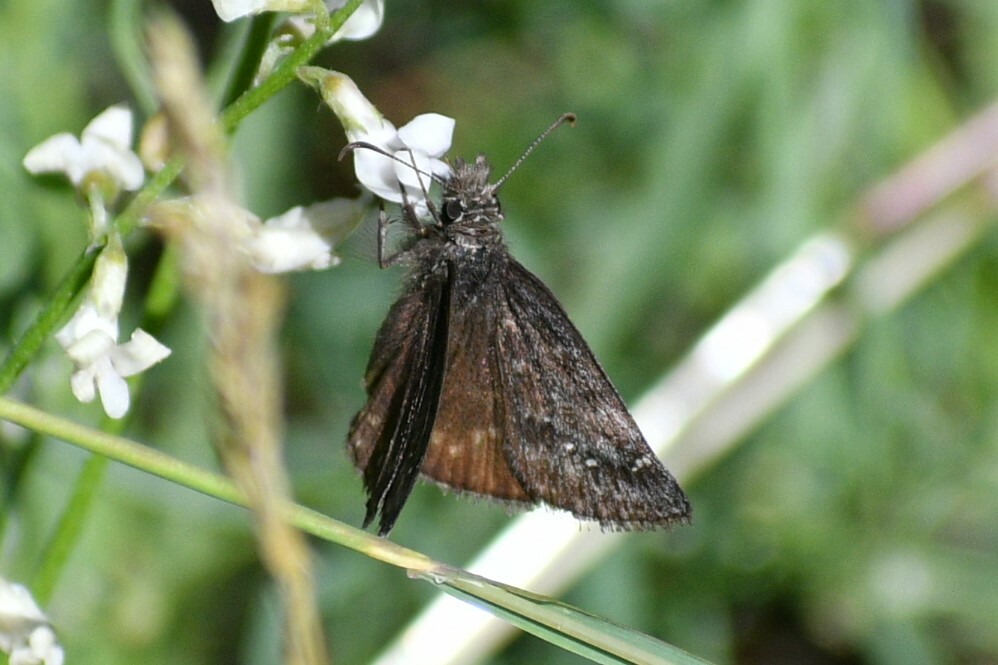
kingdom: Animalia
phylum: Arthropoda
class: Insecta
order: Lepidoptera
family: Hesperiidae
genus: Erynnis
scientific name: Erynnis persius
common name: Persius duskywing
